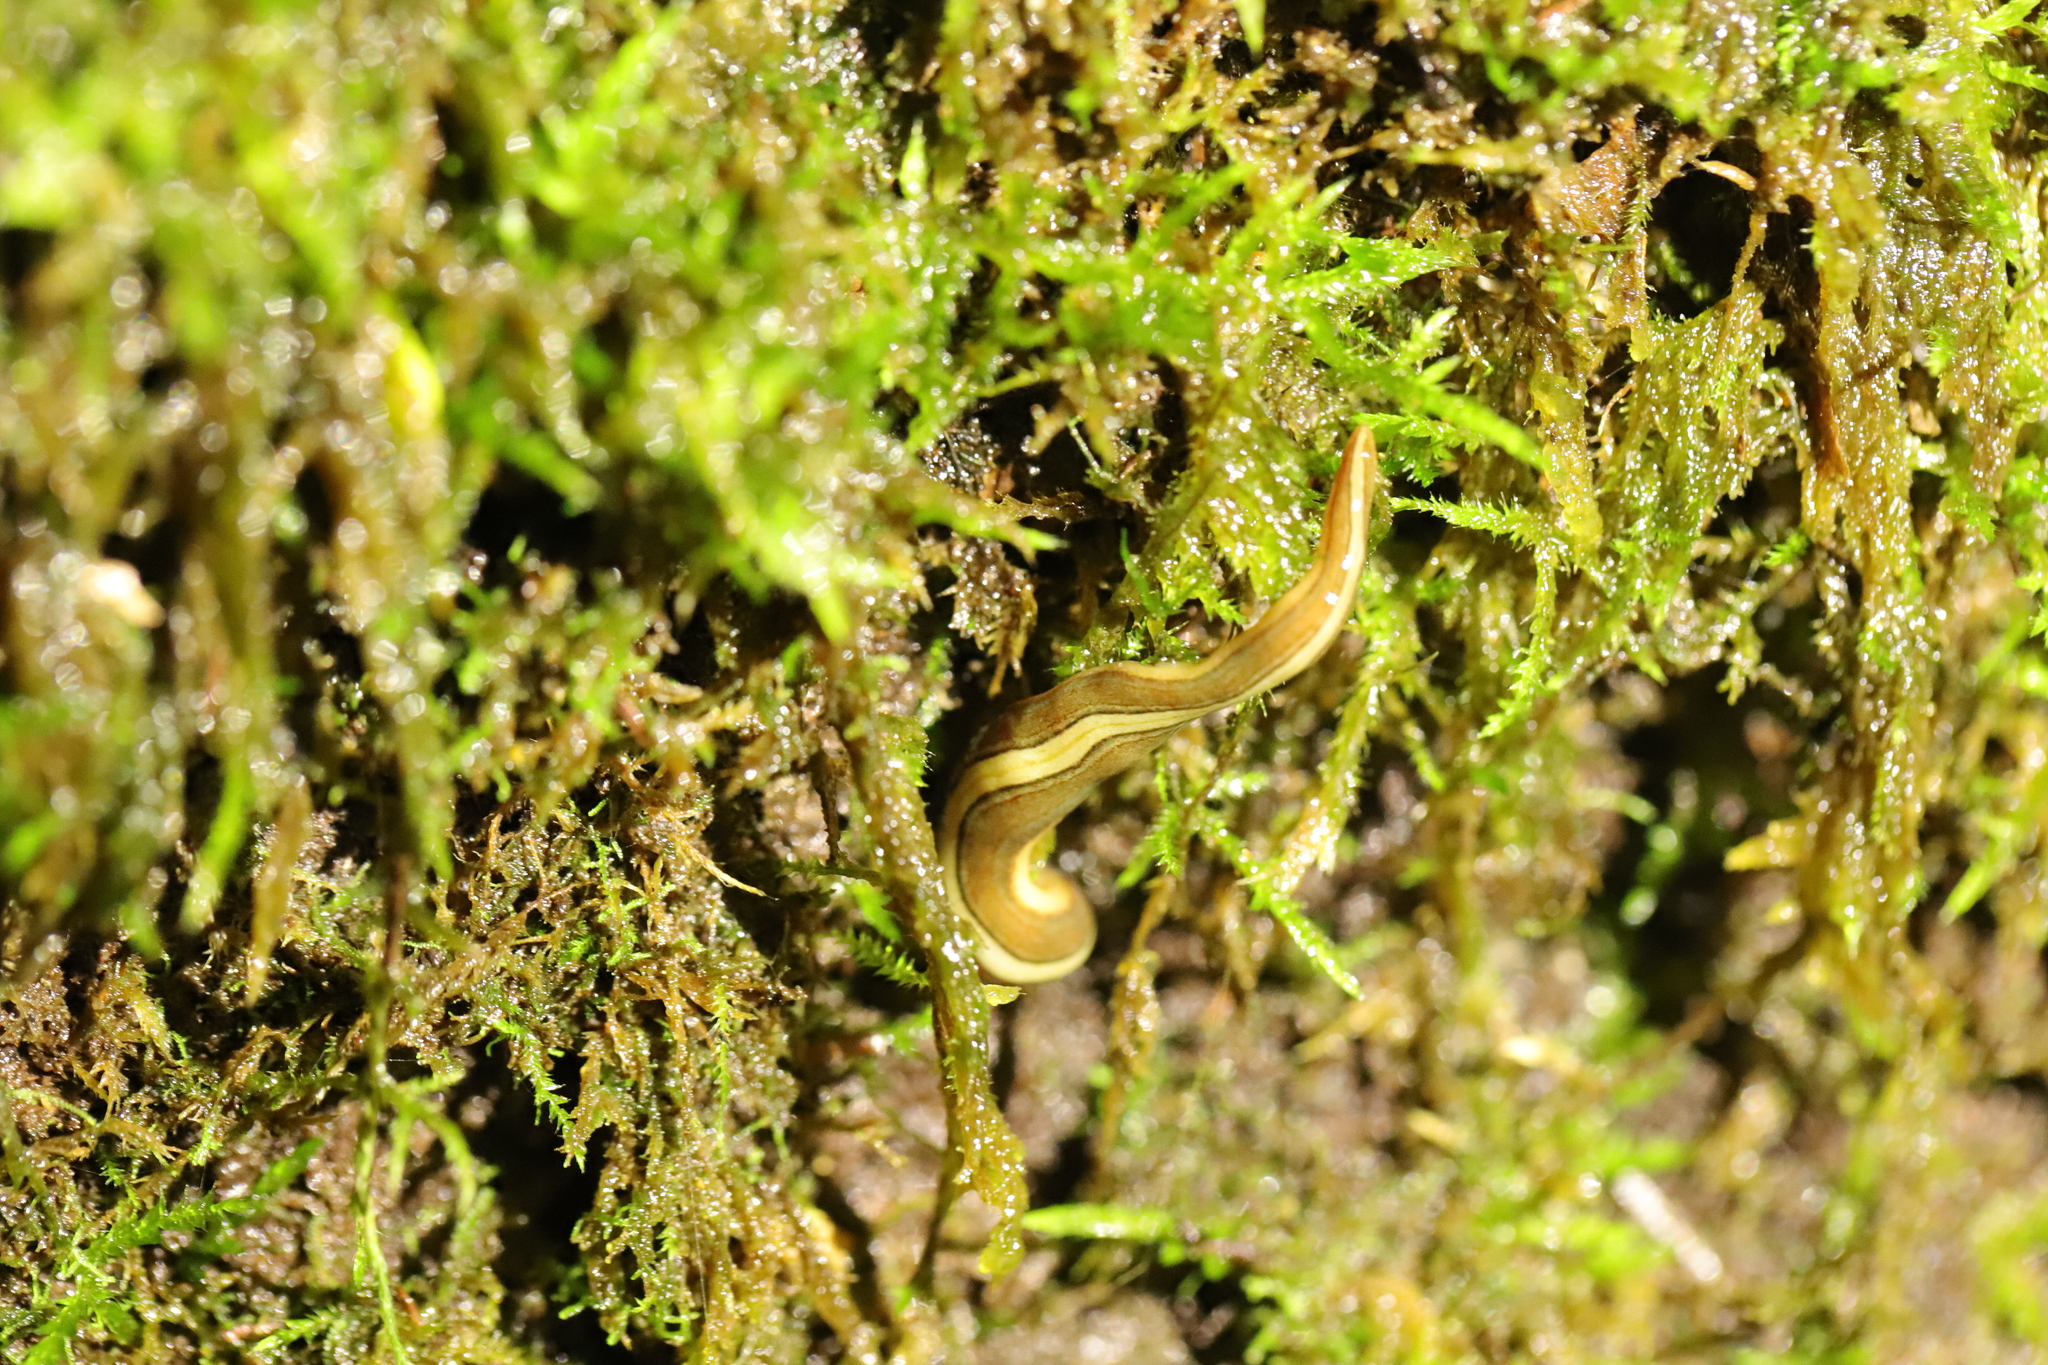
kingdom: Animalia
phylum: Platyhelminthes
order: Tricladida
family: Geoplanidae
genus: Lenkunya
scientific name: Lenkunya adae
